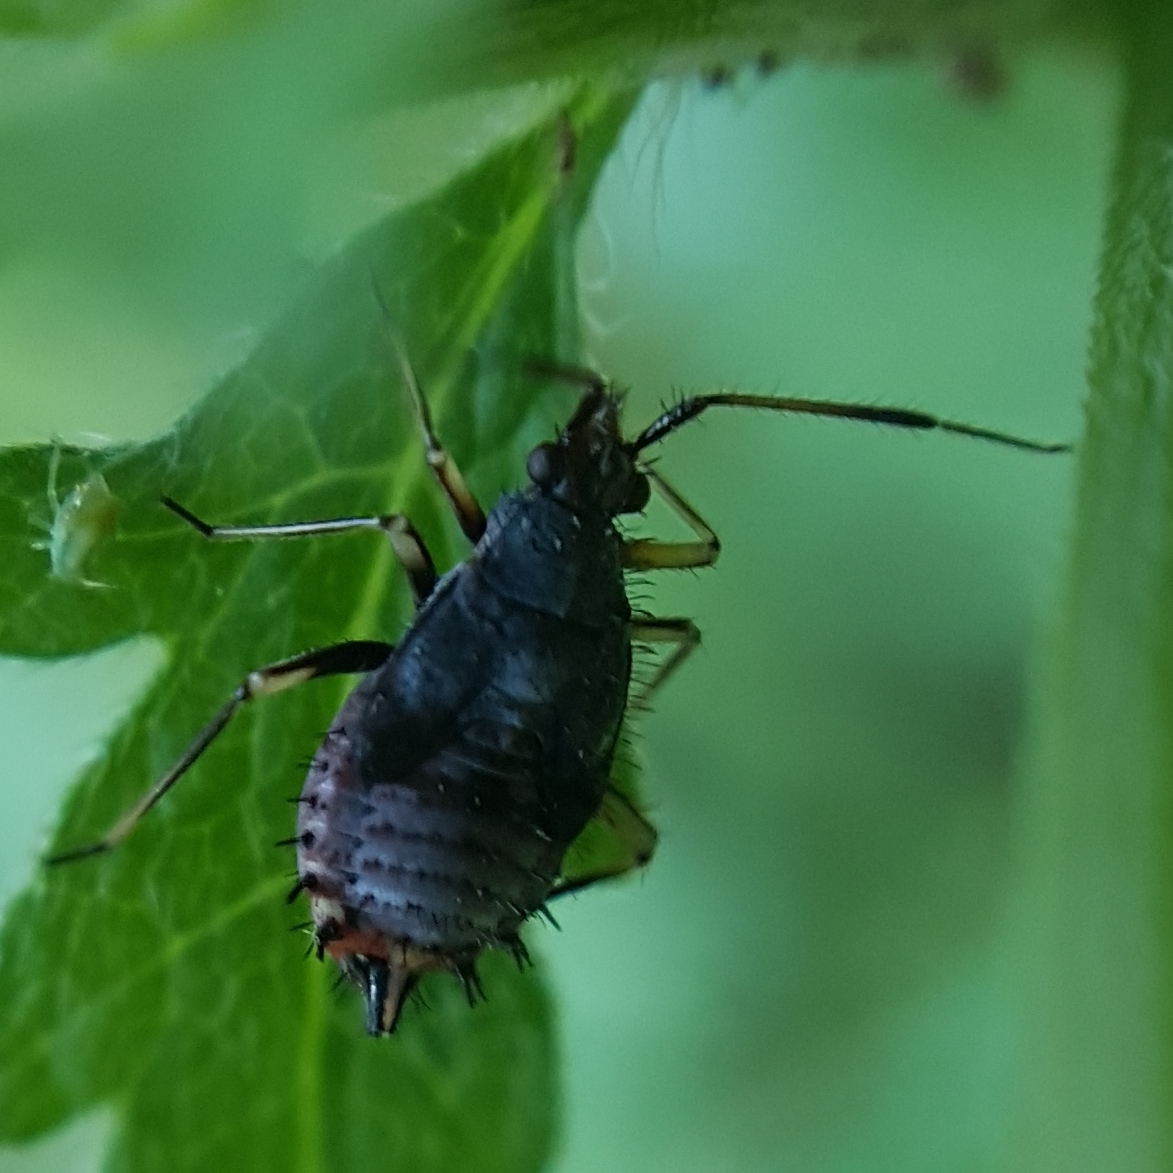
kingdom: Animalia
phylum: Arthropoda
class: Insecta
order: Hemiptera
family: Miridae
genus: Deraeocoris
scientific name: Deraeocoris ruber
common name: Plant bug
